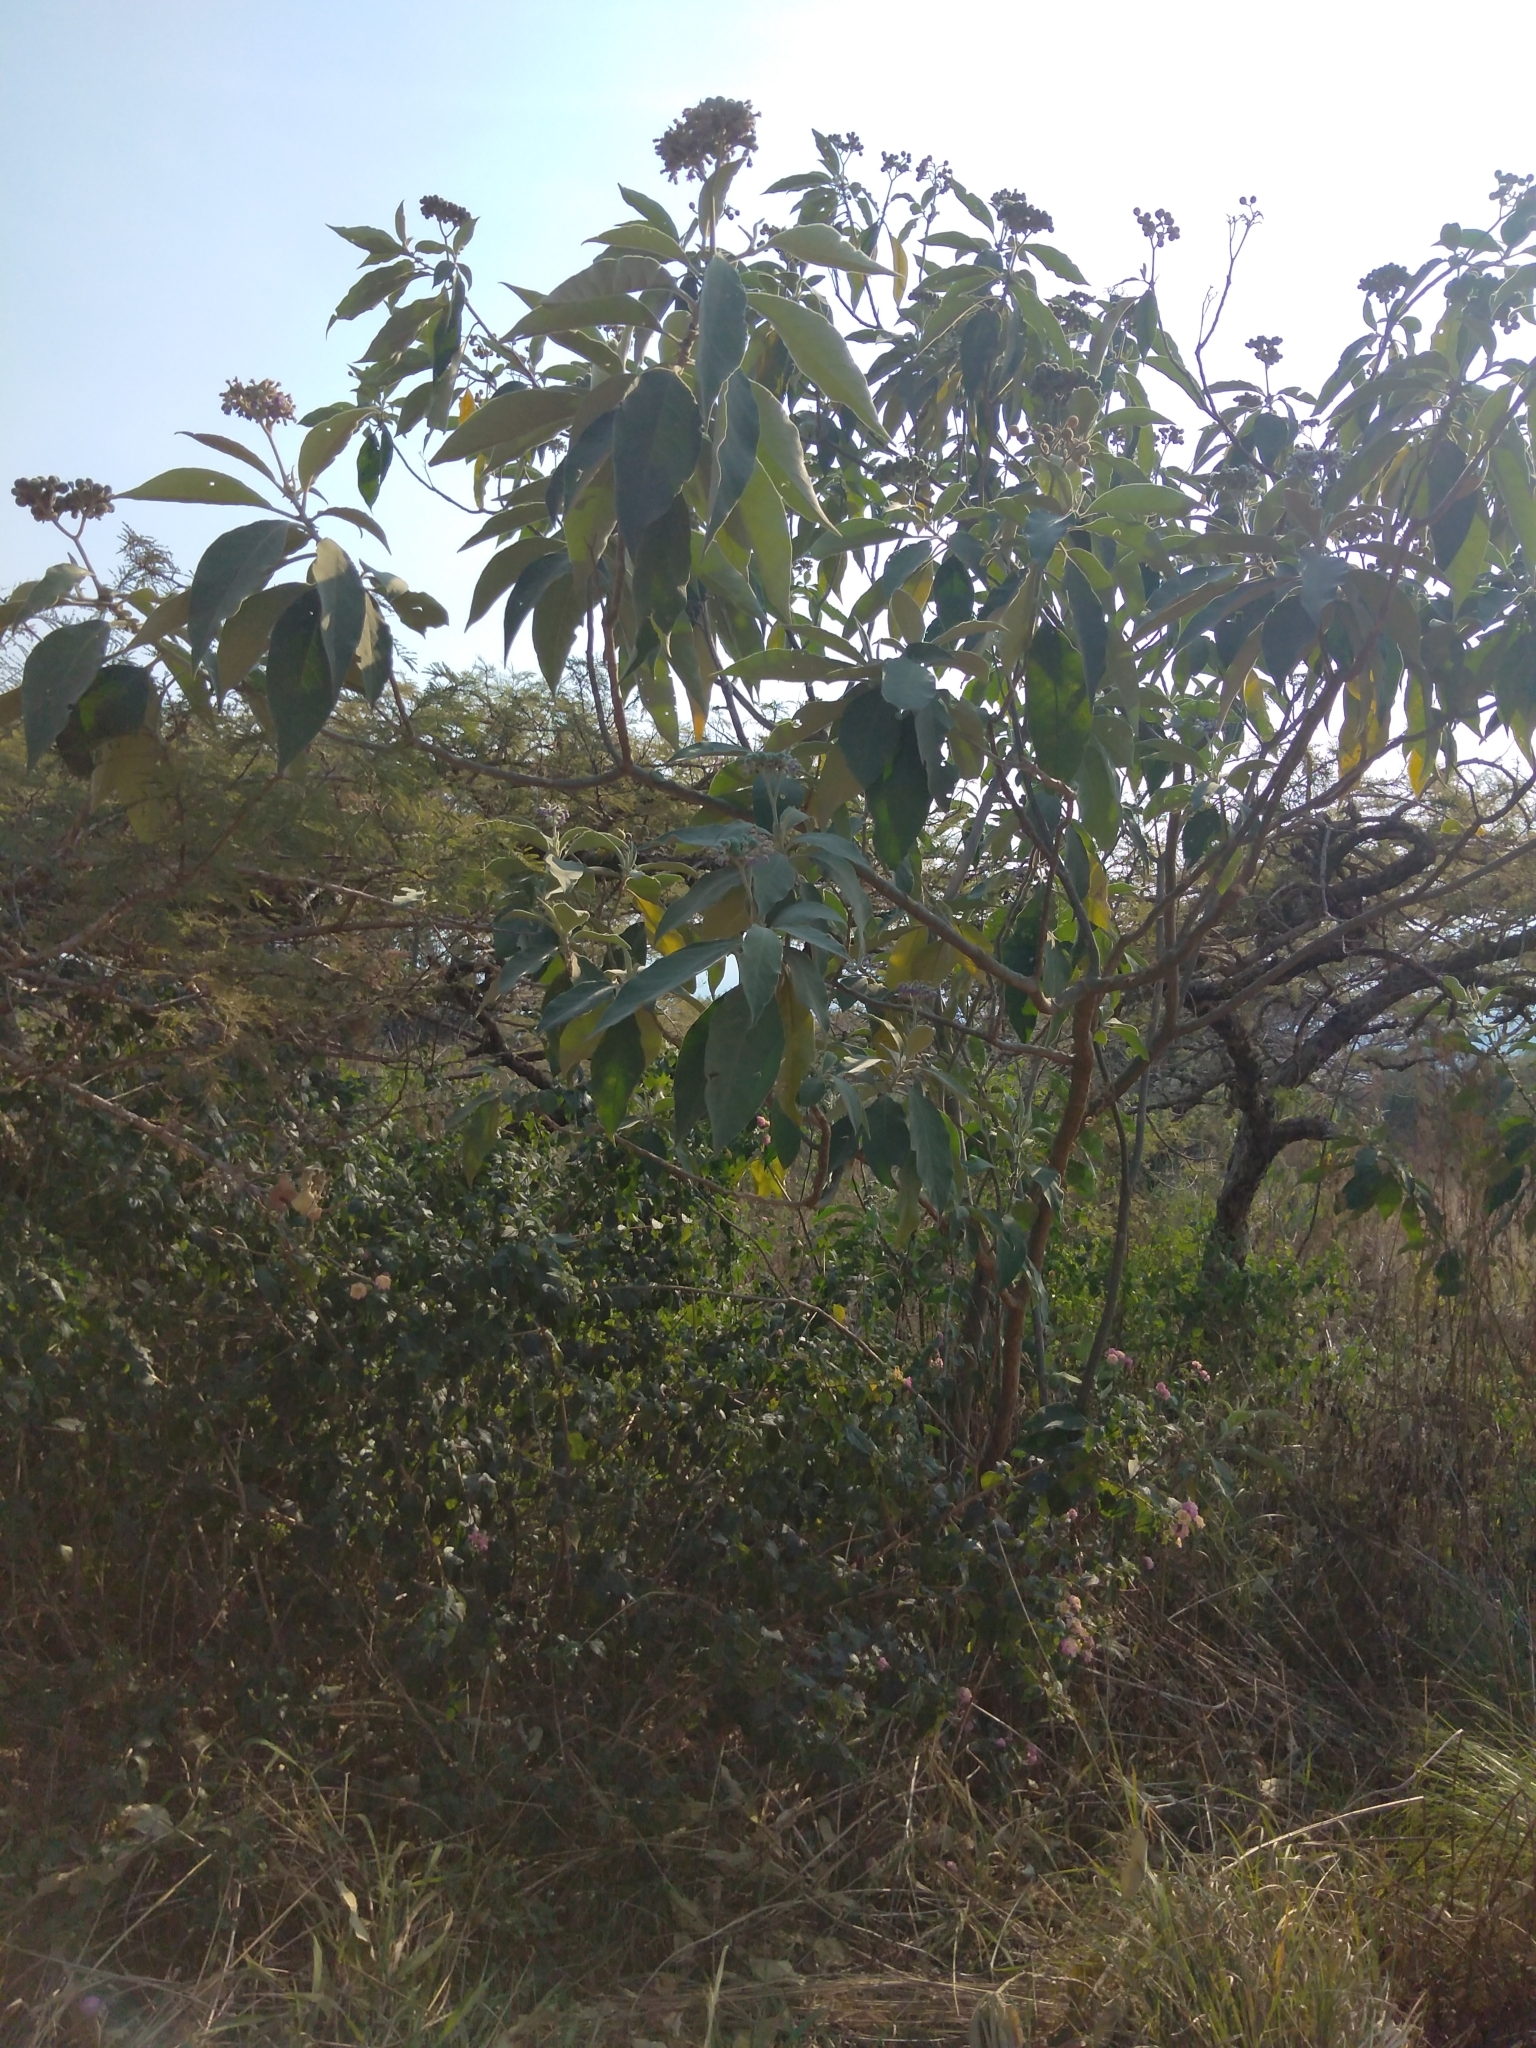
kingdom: Plantae
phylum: Tracheophyta
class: Magnoliopsida
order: Solanales
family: Solanaceae
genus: Solanum
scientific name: Solanum mauritianum
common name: Earleaf nightshade
